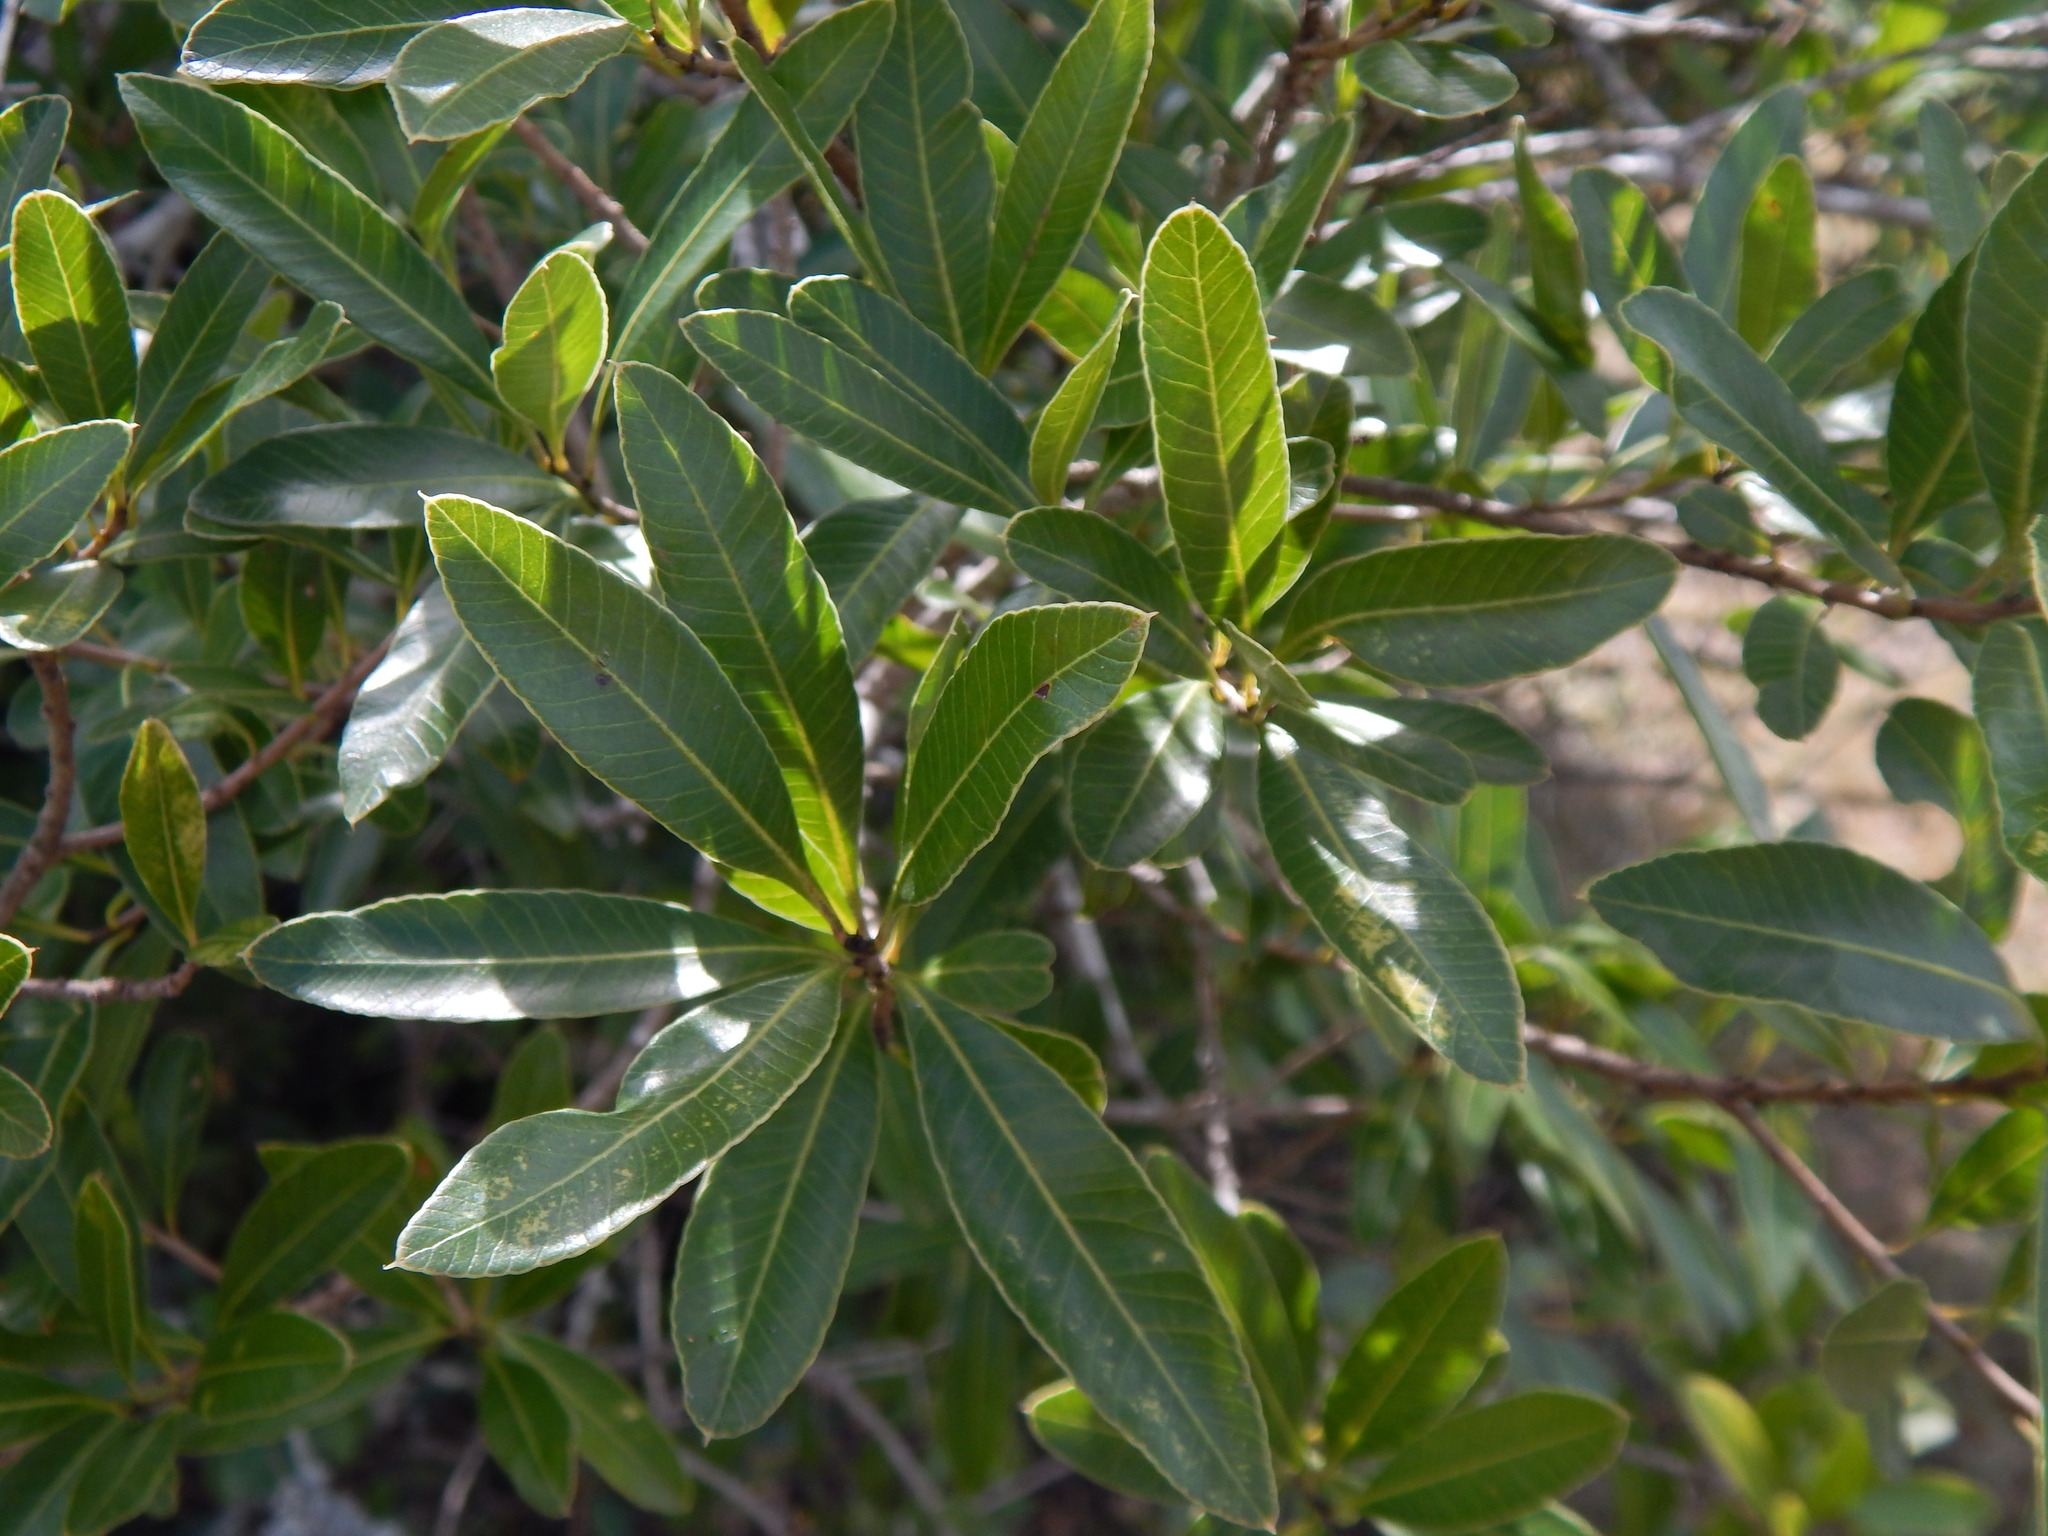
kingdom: Plantae
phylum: Tracheophyta
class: Magnoliopsida
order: Sapindales
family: Anacardiaceae
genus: Lithraea
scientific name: Lithraea brasiliensis
